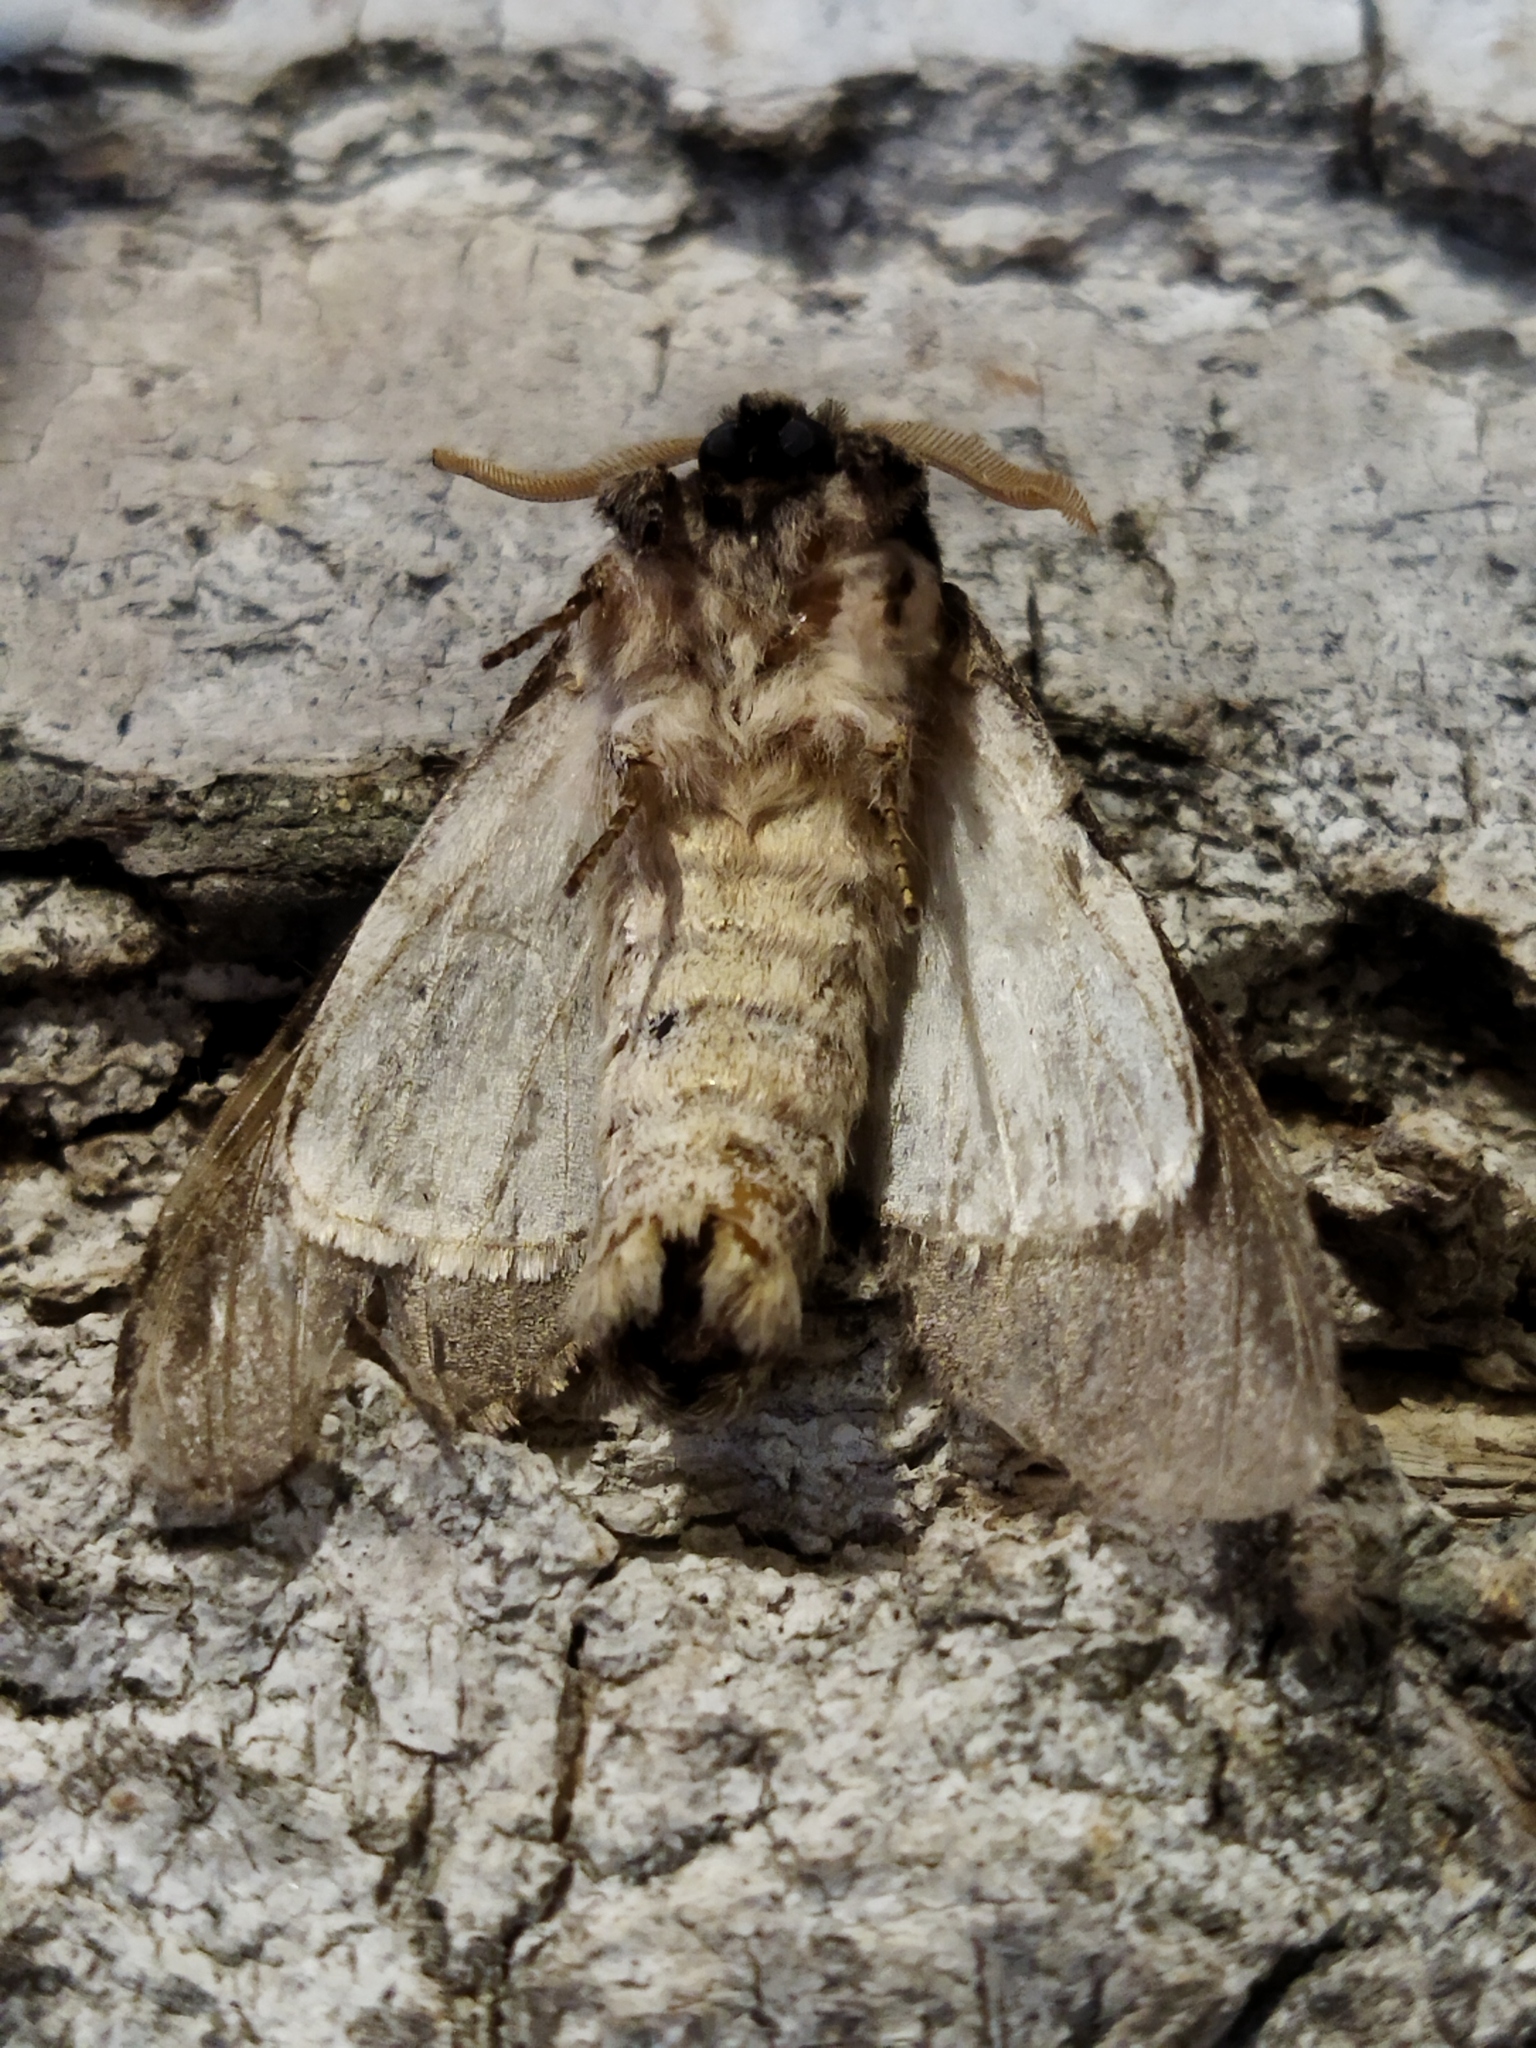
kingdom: Animalia
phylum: Arthropoda
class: Insecta
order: Lepidoptera
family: Notodontidae
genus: Pheosia
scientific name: Pheosia tremula
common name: Swallow prominent
